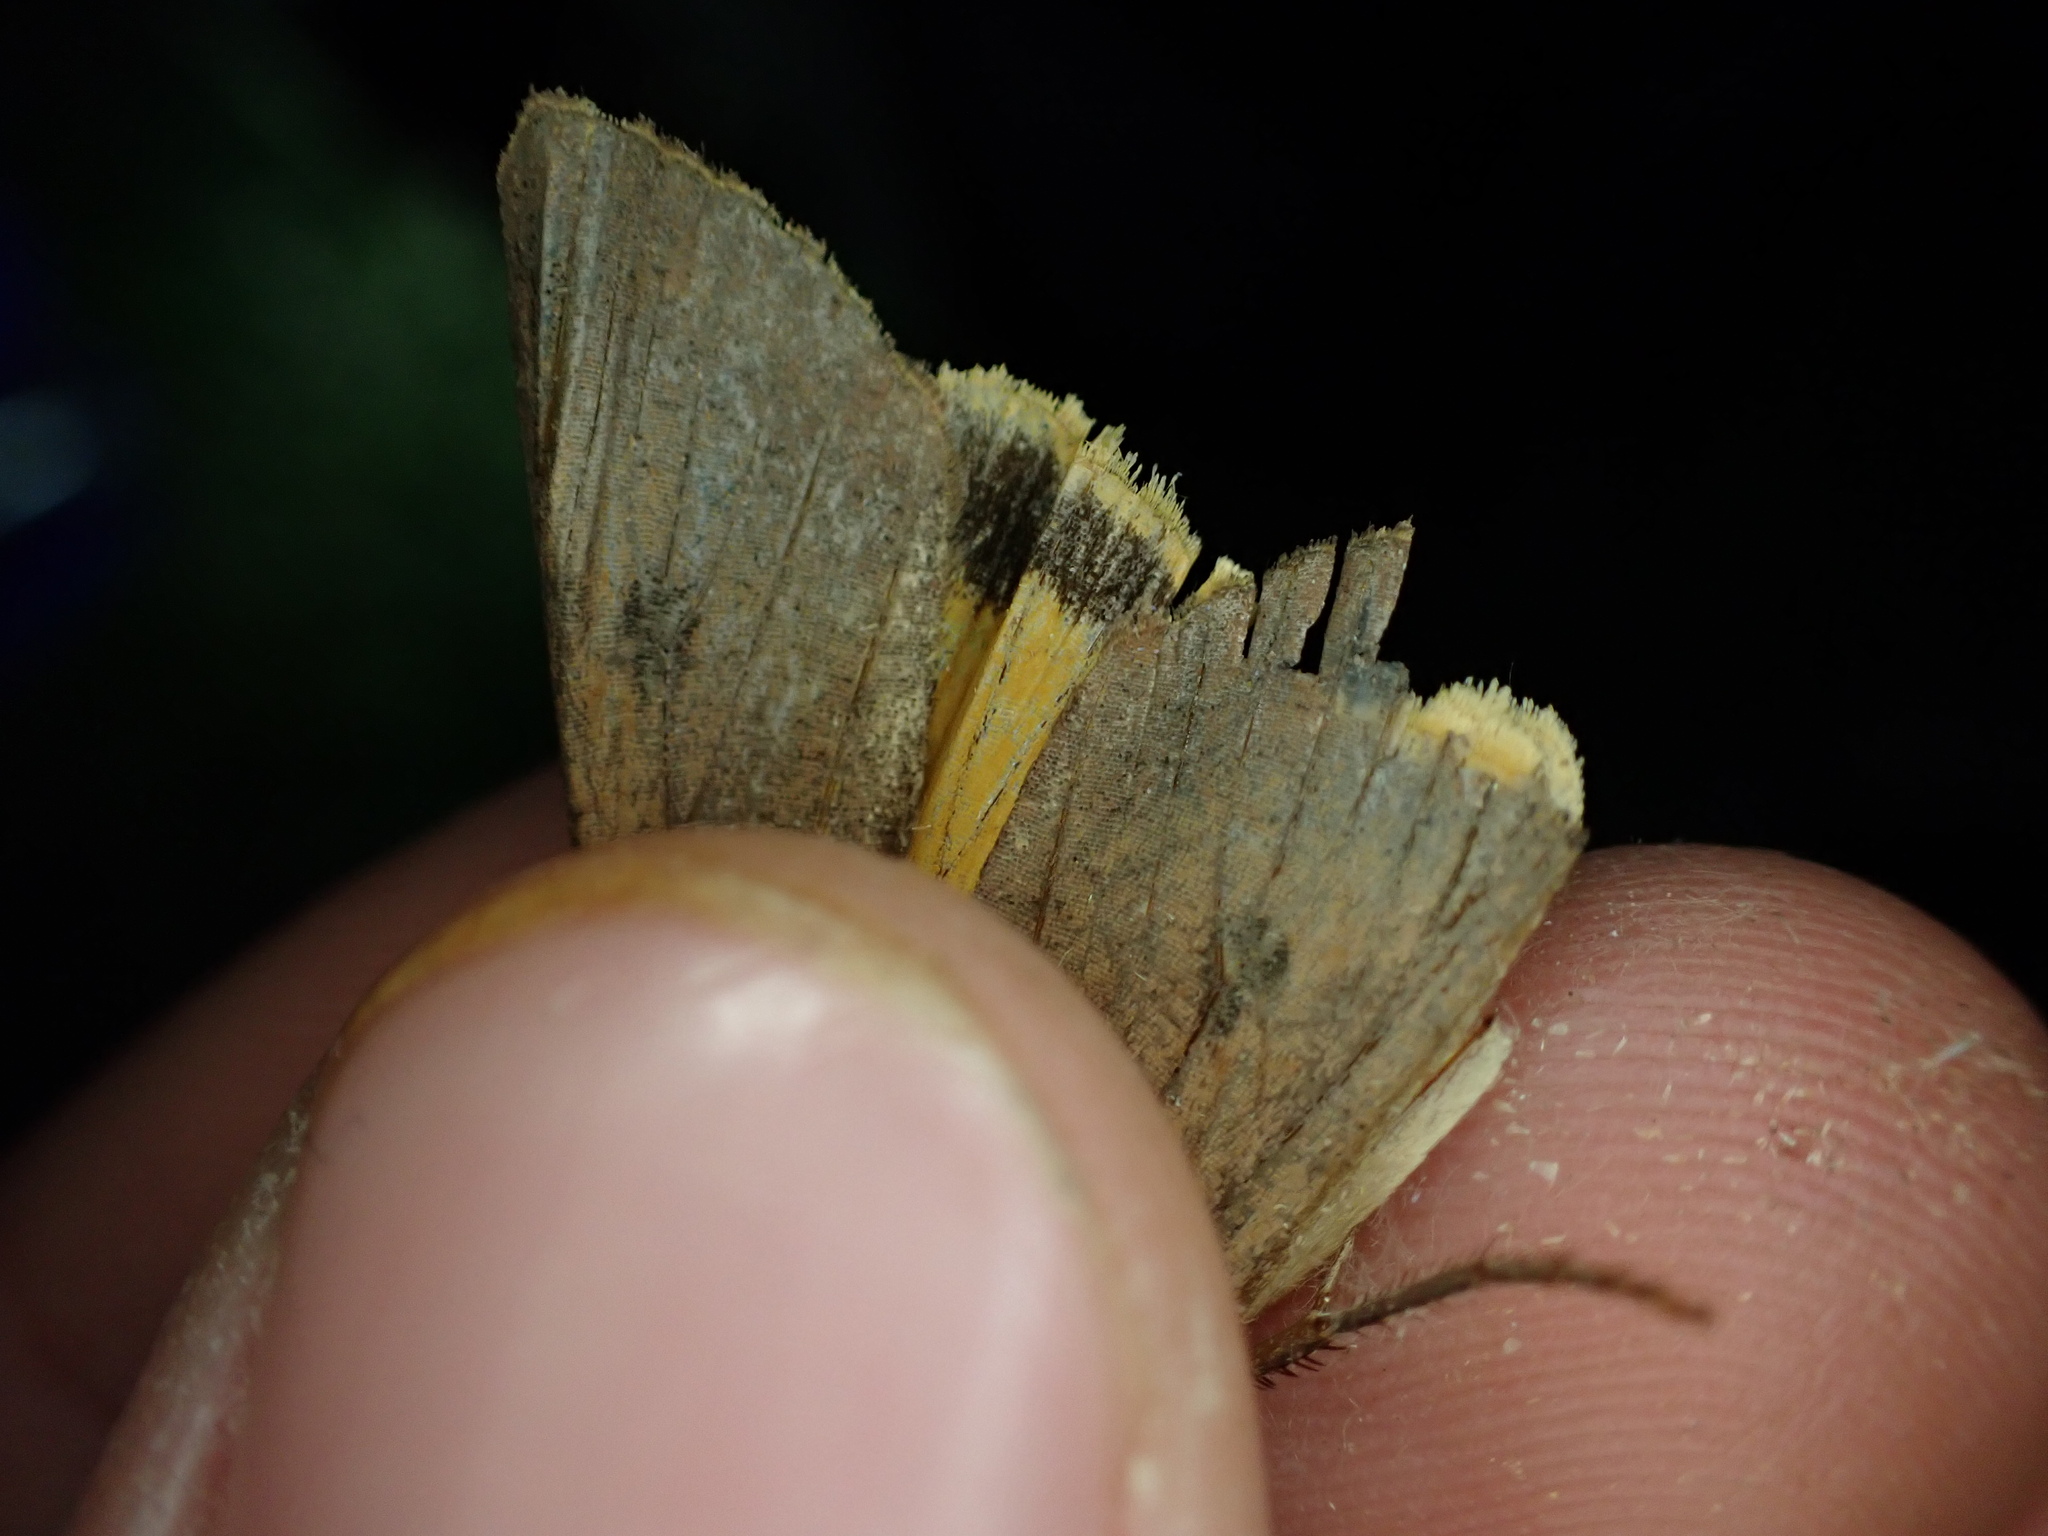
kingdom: Animalia
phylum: Arthropoda
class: Insecta
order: Lepidoptera
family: Noctuidae
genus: Noctua
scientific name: Noctua pronuba
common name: Large yellow underwing
